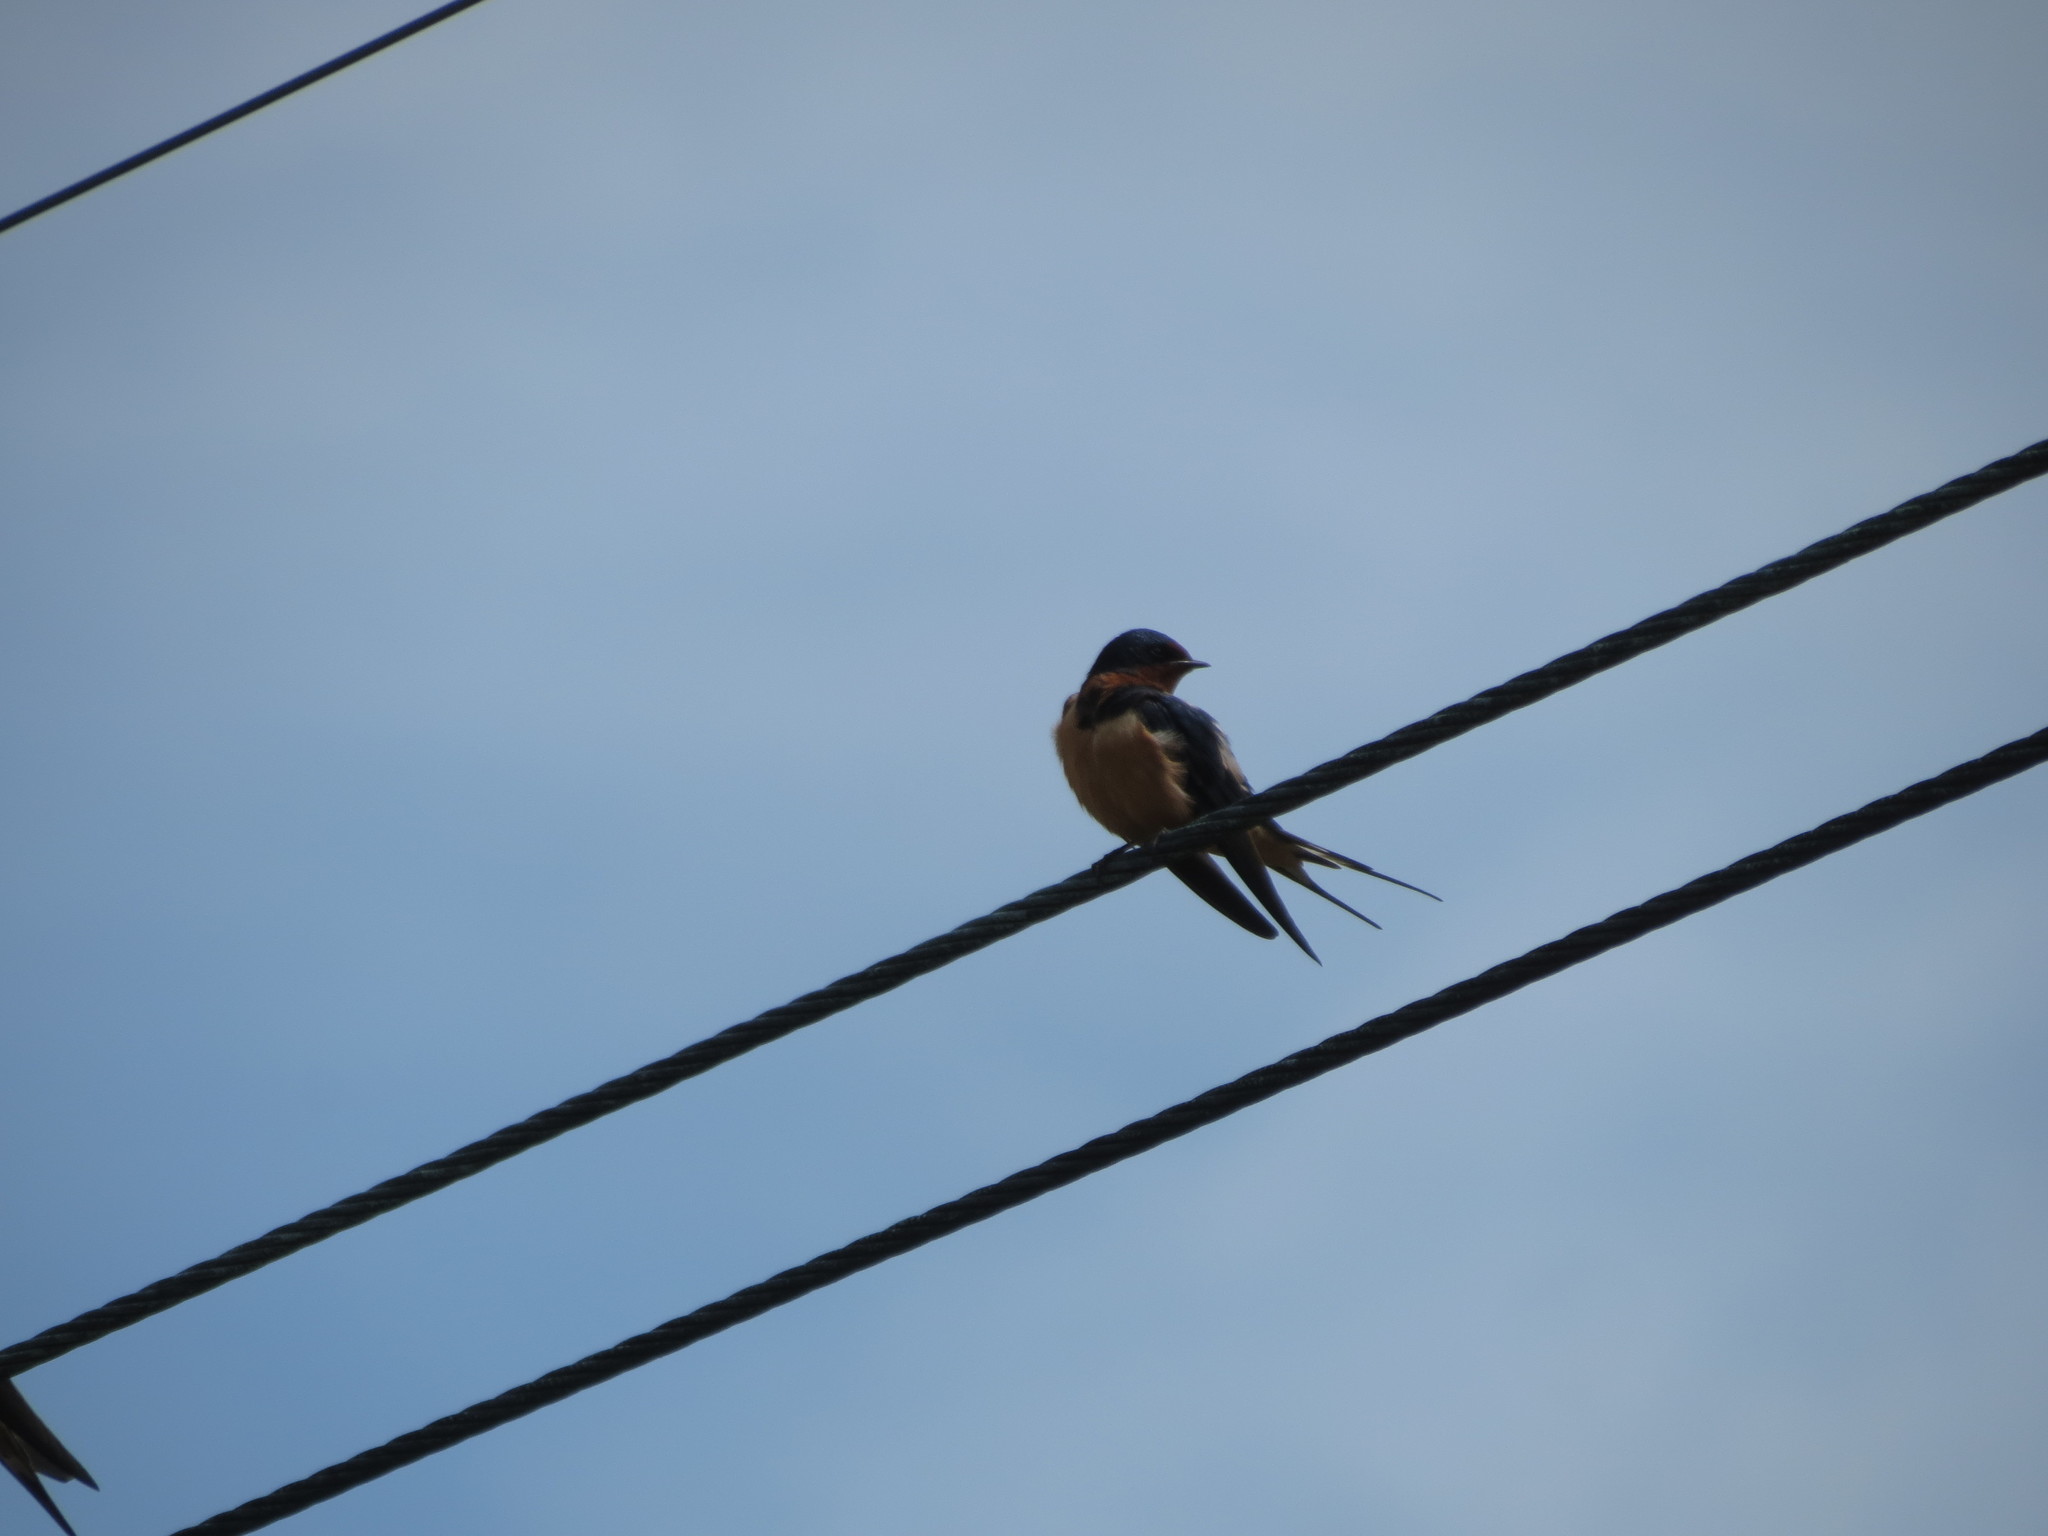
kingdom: Animalia
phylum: Chordata
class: Aves
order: Passeriformes
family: Hirundinidae
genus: Hirundo
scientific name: Hirundo rustica
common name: Barn swallow
